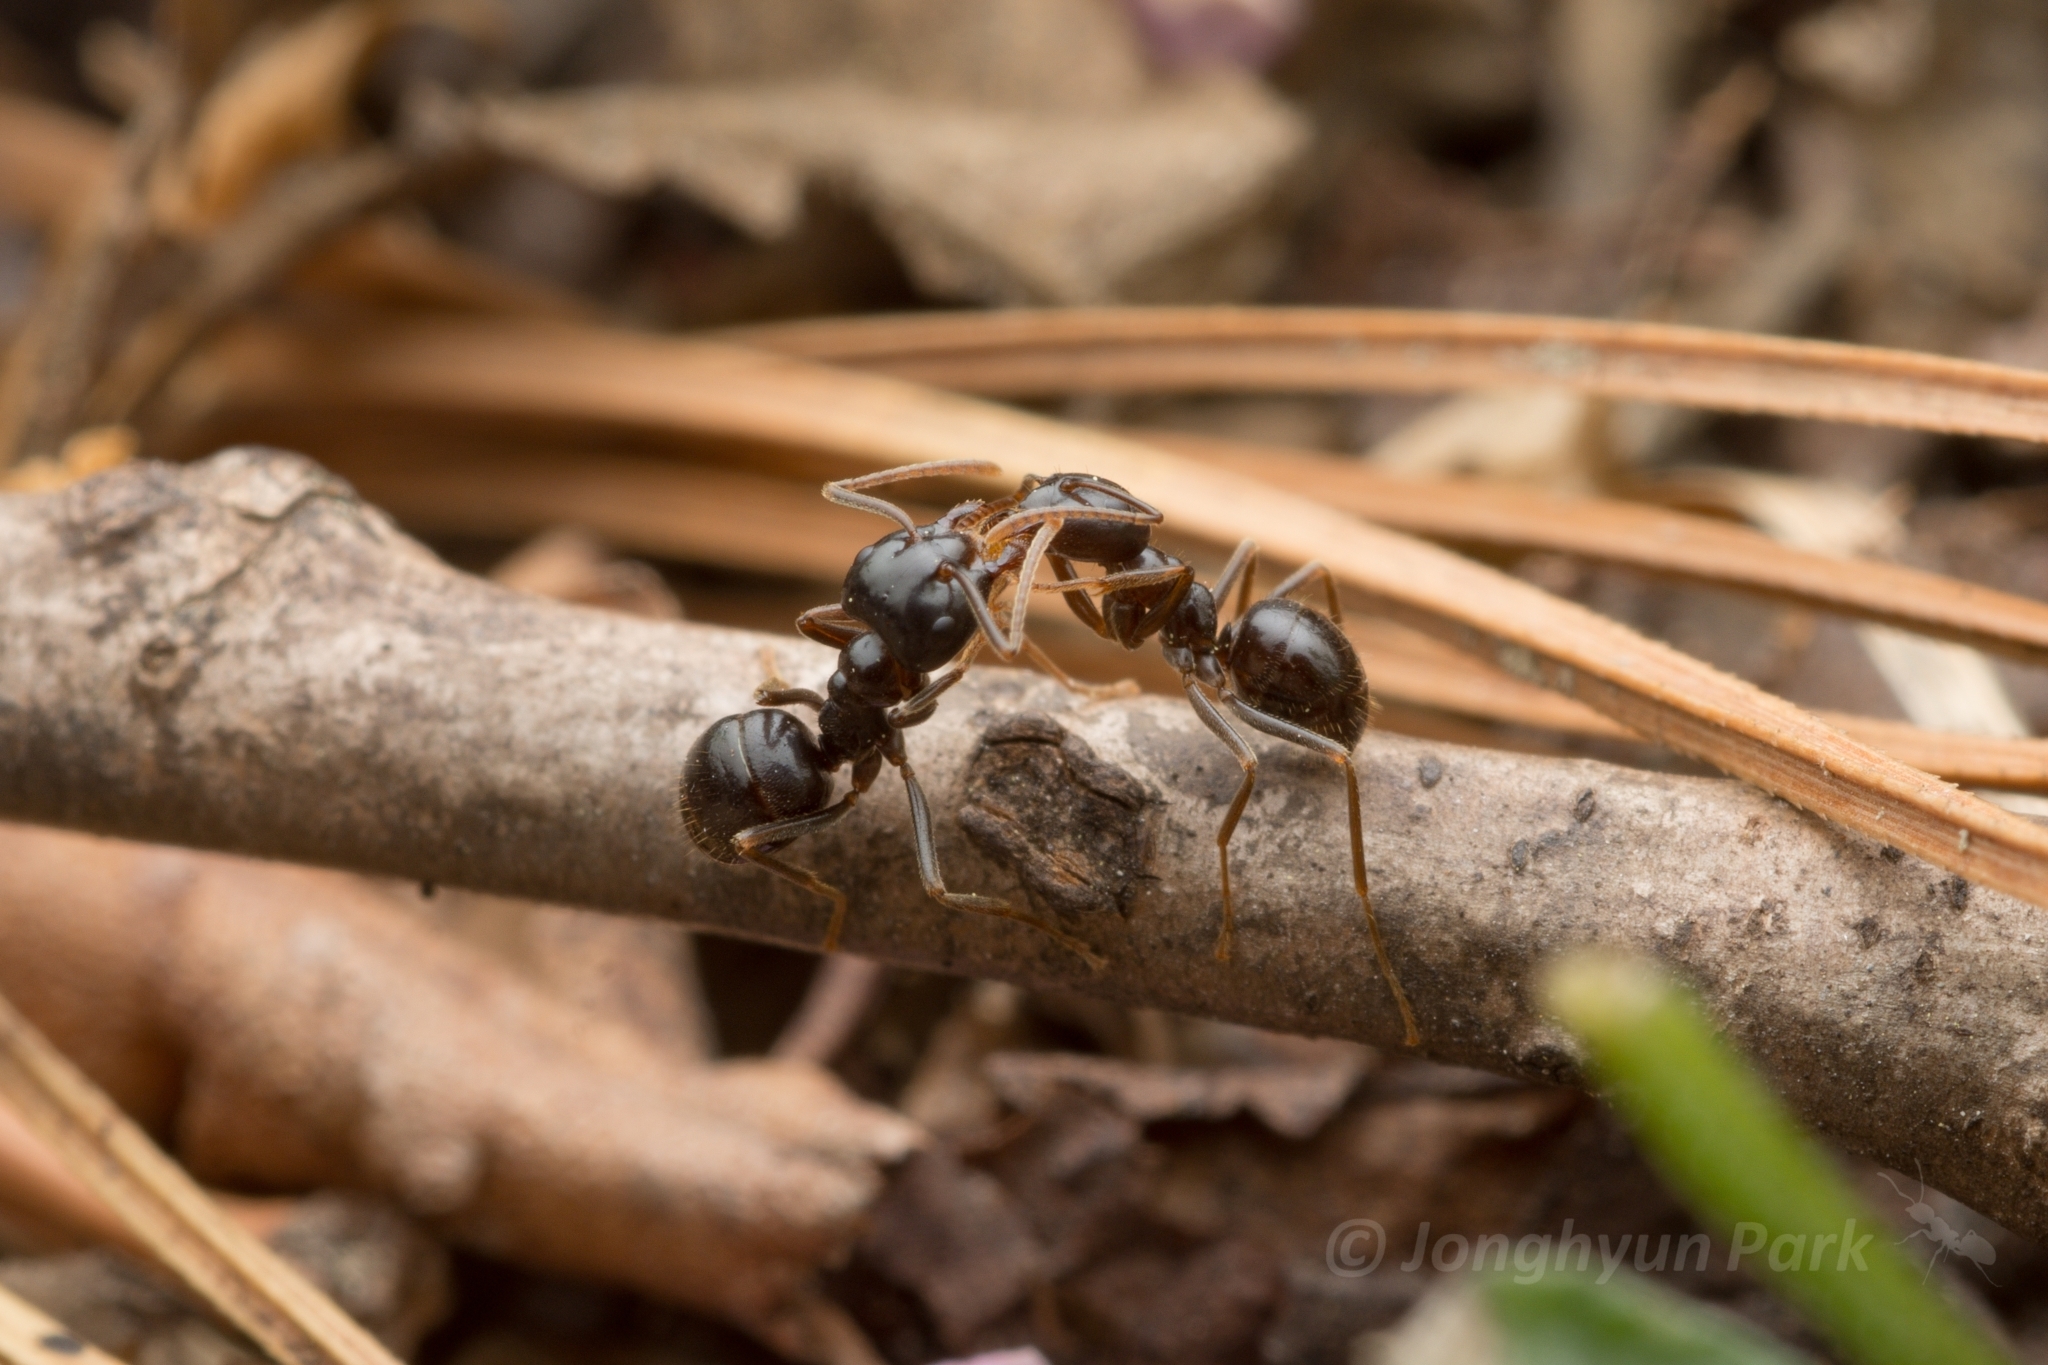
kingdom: Animalia
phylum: Arthropoda
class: Insecta
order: Hymenoptera
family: Formicidae
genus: Lasius
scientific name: Lasius capitatus
